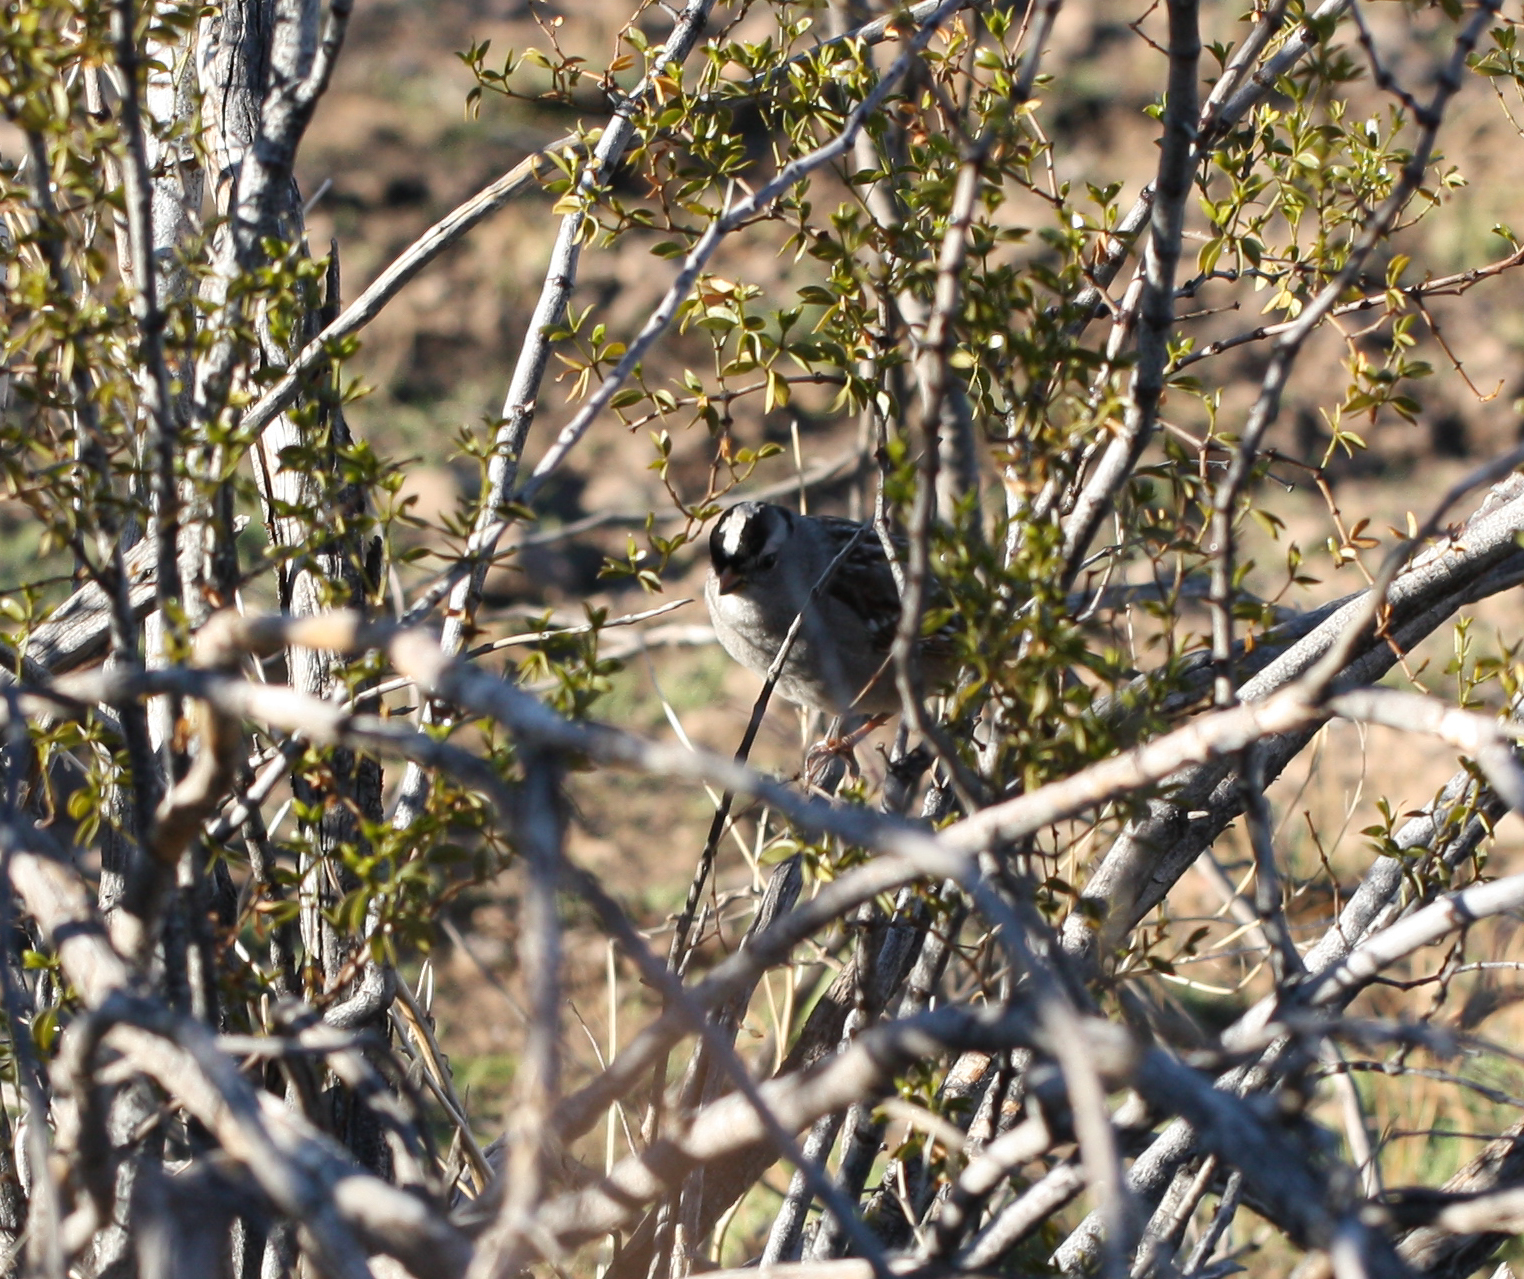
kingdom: Animalia
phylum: Chordata
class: Aves
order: Passeriformes
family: Passerellidae
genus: Zonotrichia
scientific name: Zonotrichia leucophrys
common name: White-crowned sparrow
